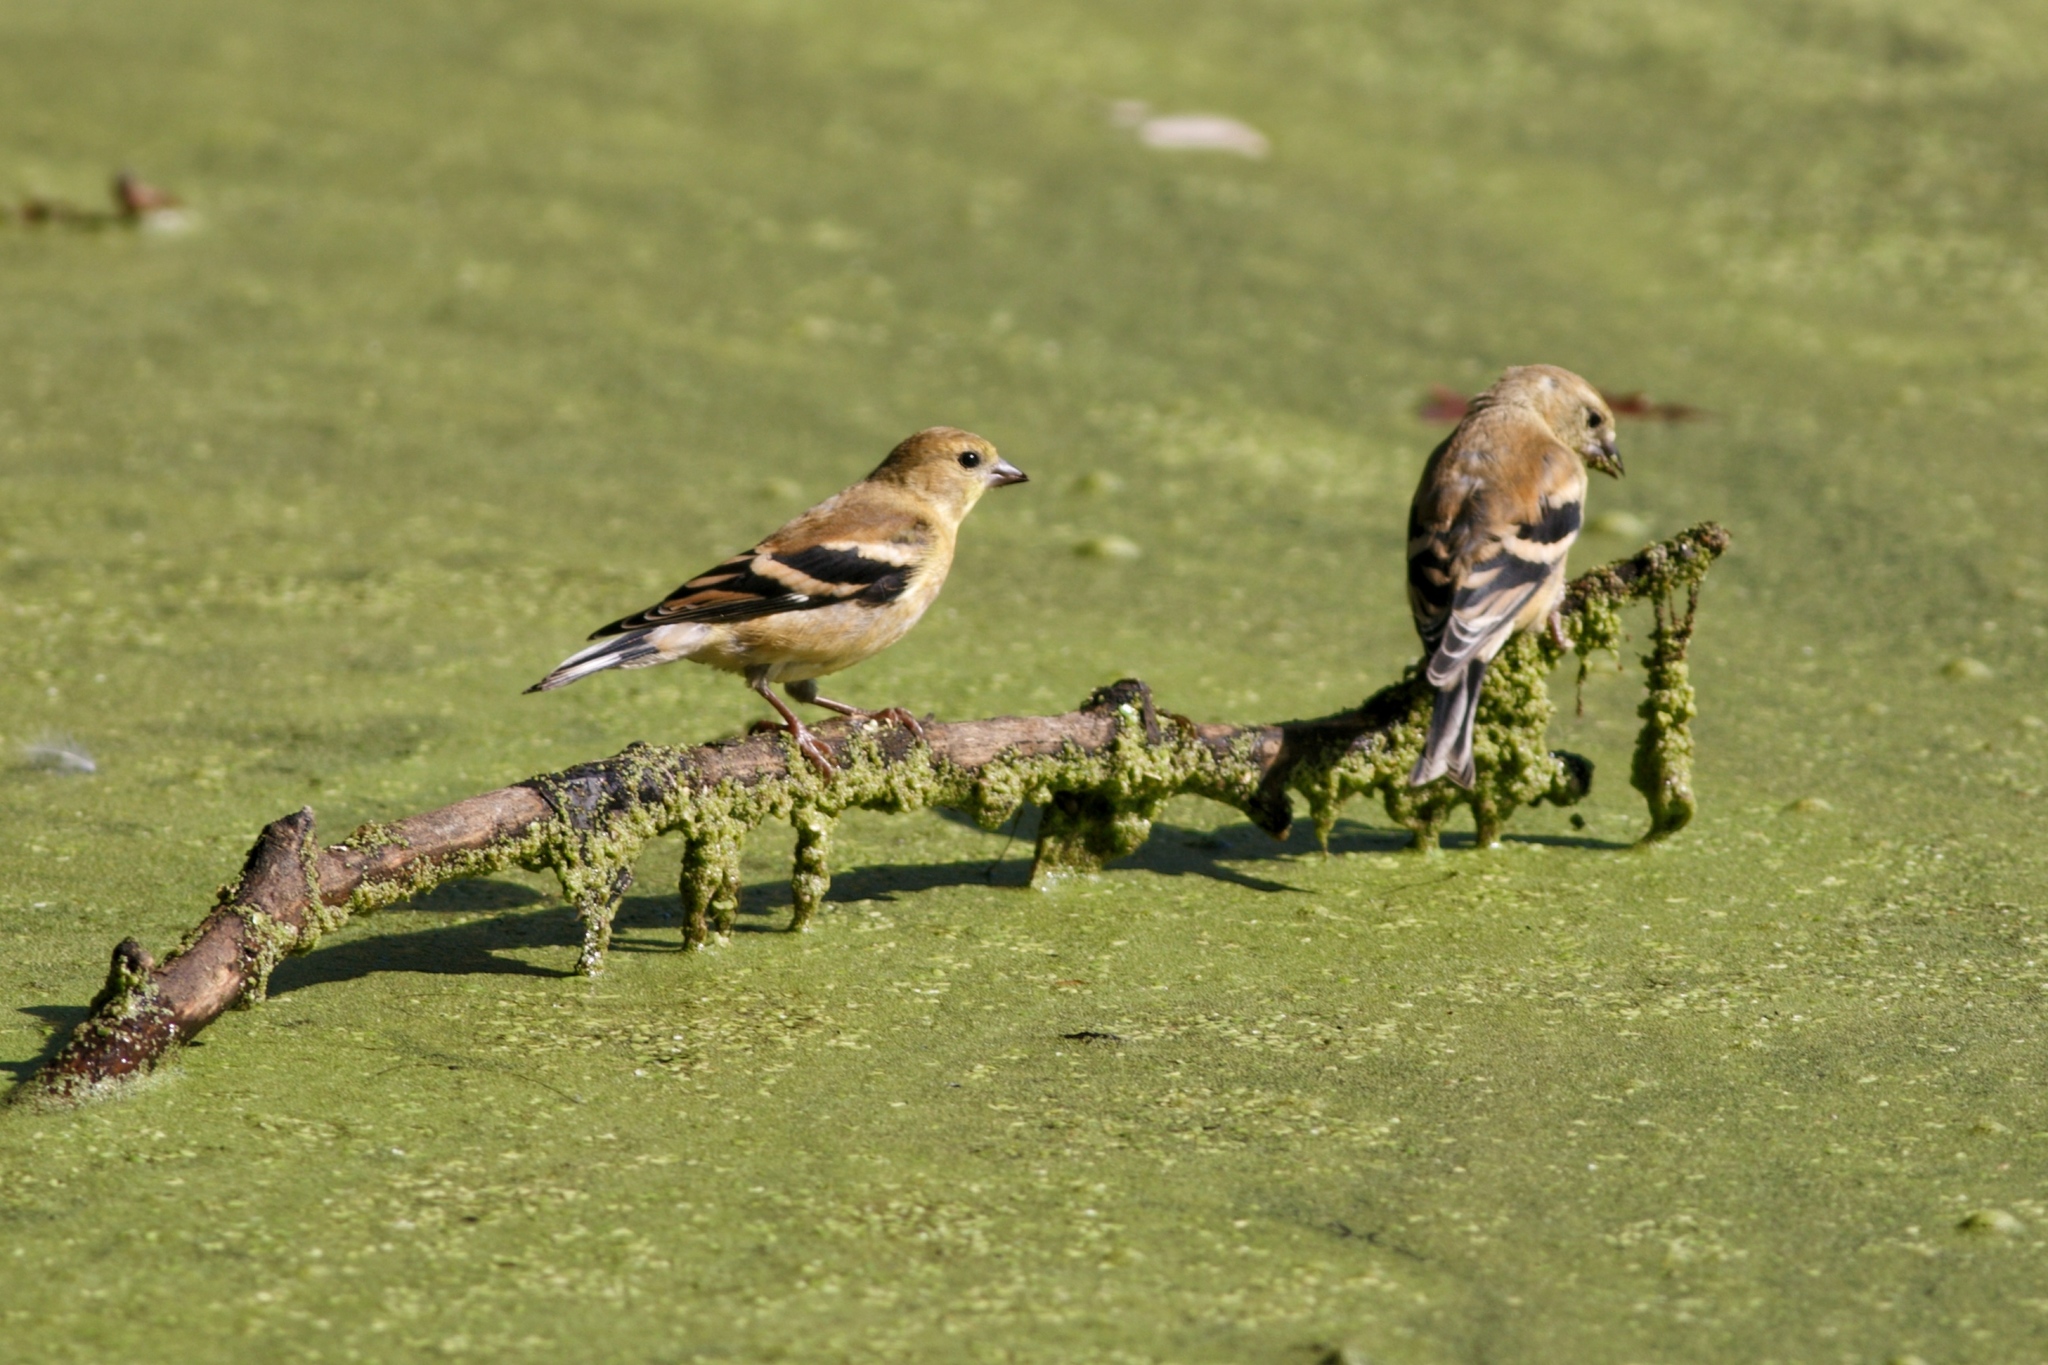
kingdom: Animalia
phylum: Chordata
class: Aves
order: Passeriformes
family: Fringillidae
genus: Spinus
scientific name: Spinus tristis
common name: American goldfinch
